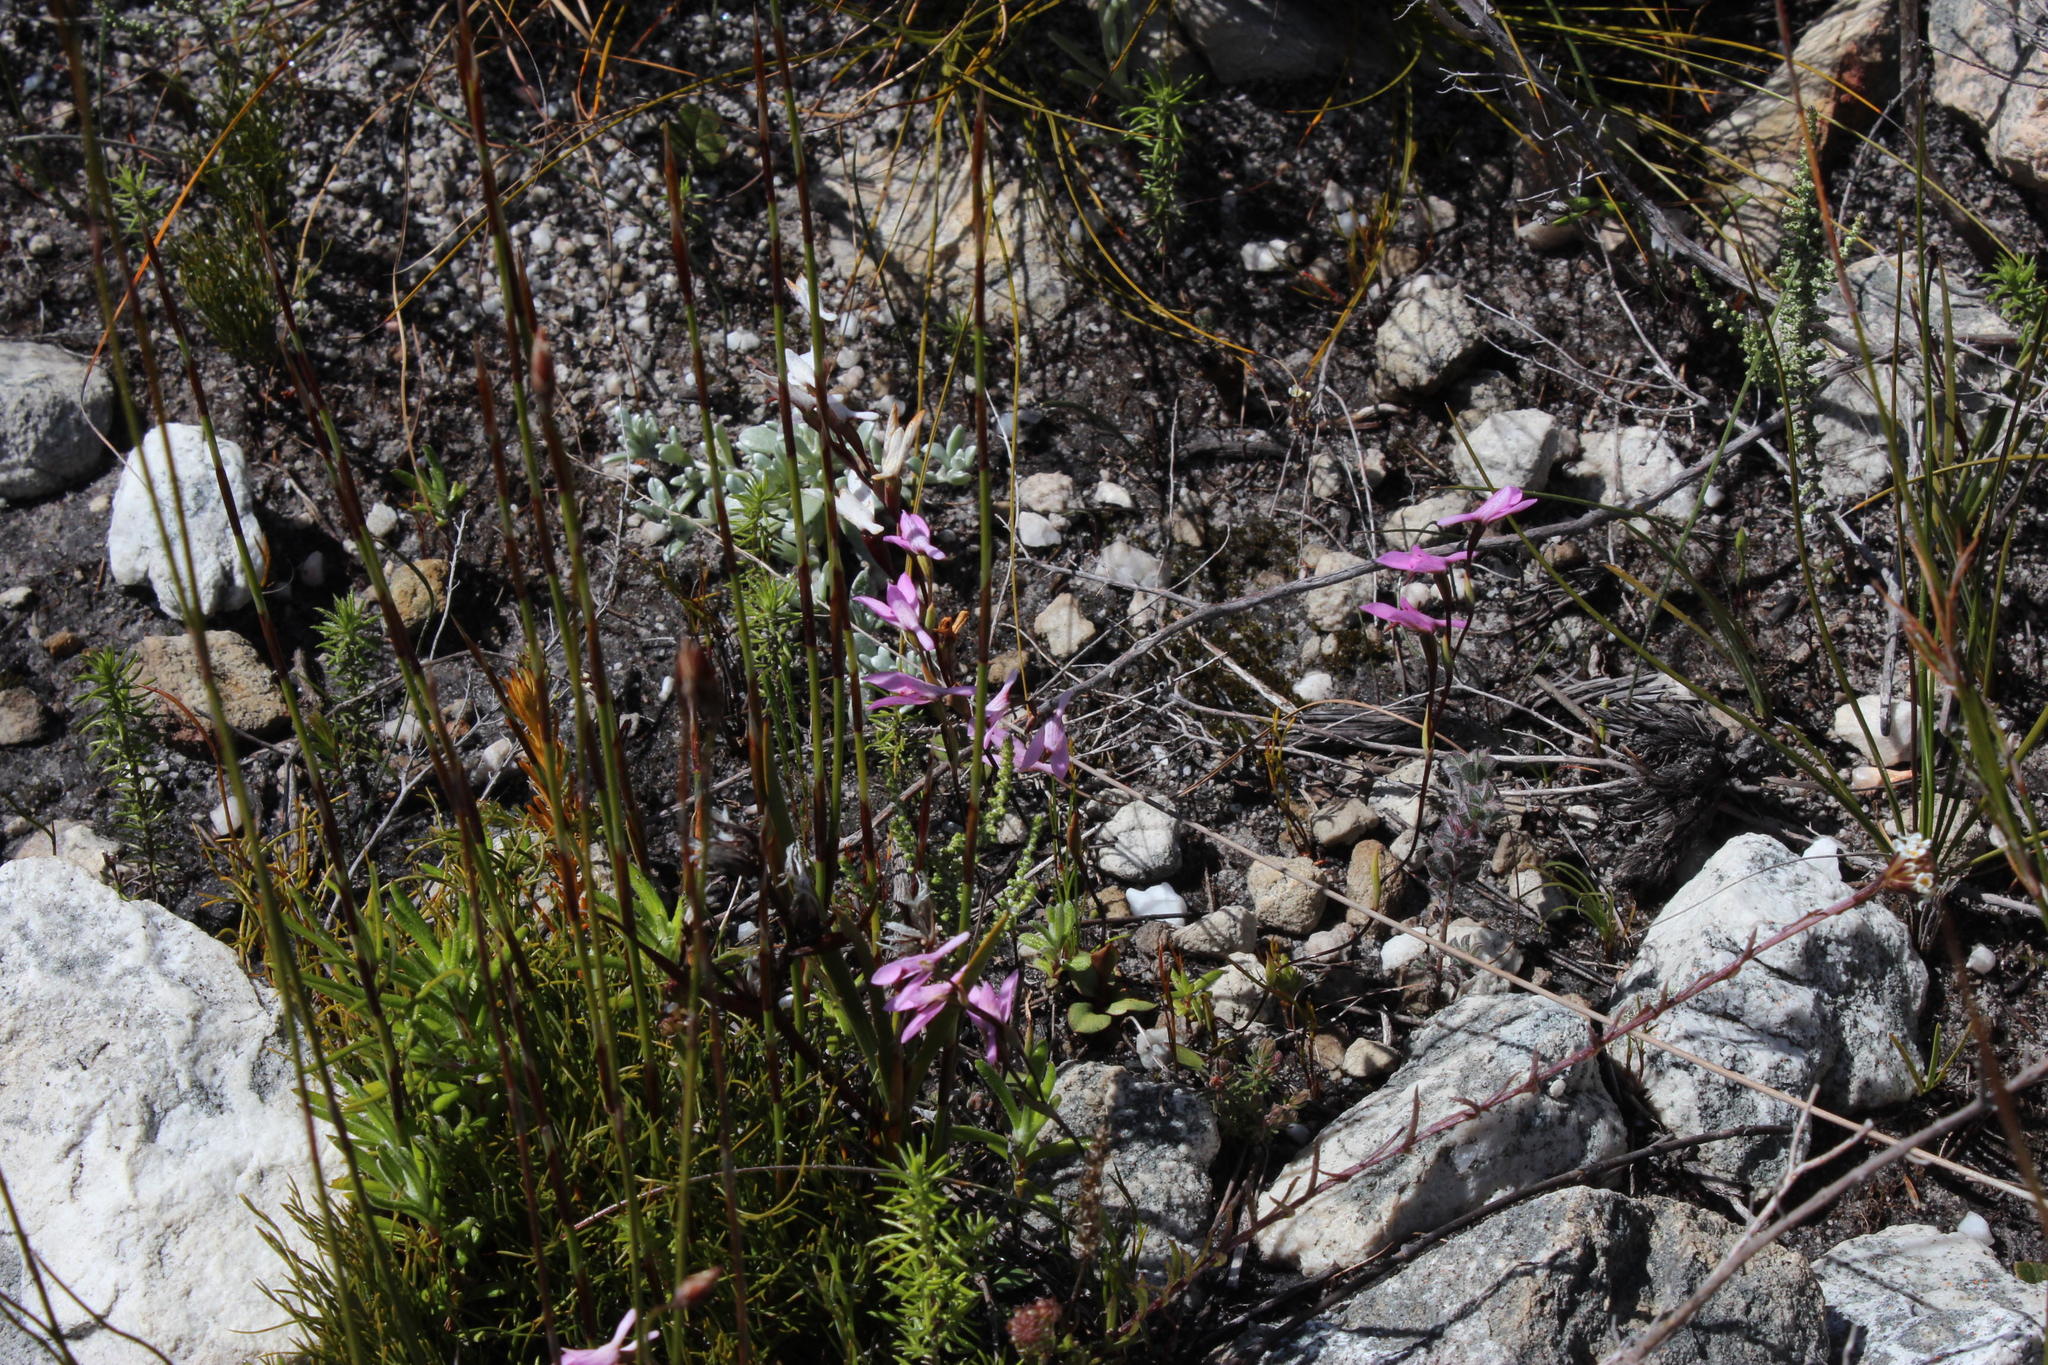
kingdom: Plantae
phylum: Tracheophyta
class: Liliopsida
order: Asparagales
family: Orchidaceae
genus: Disa
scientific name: Disa obliqua
